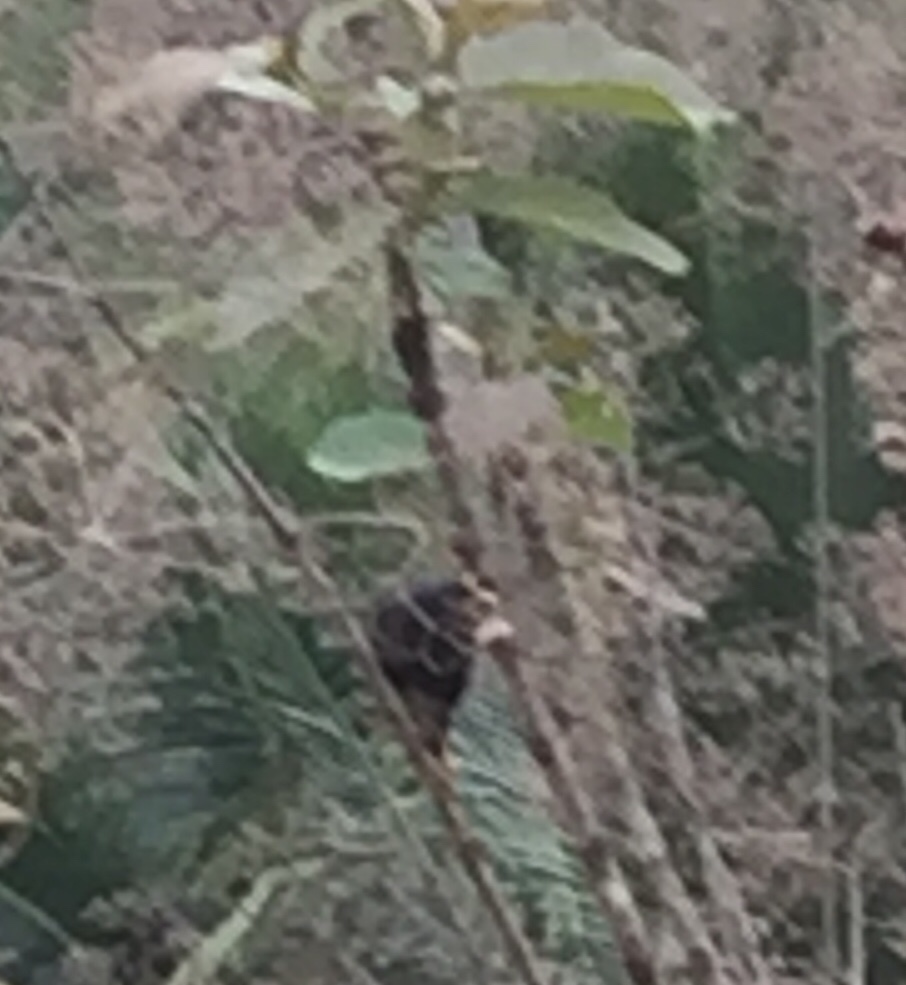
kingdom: Animalia
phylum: Chordata
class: Aves
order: Passeriformes
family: Sturnidae
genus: Acridotheres
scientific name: Acridotheres tristis
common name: Common myna
